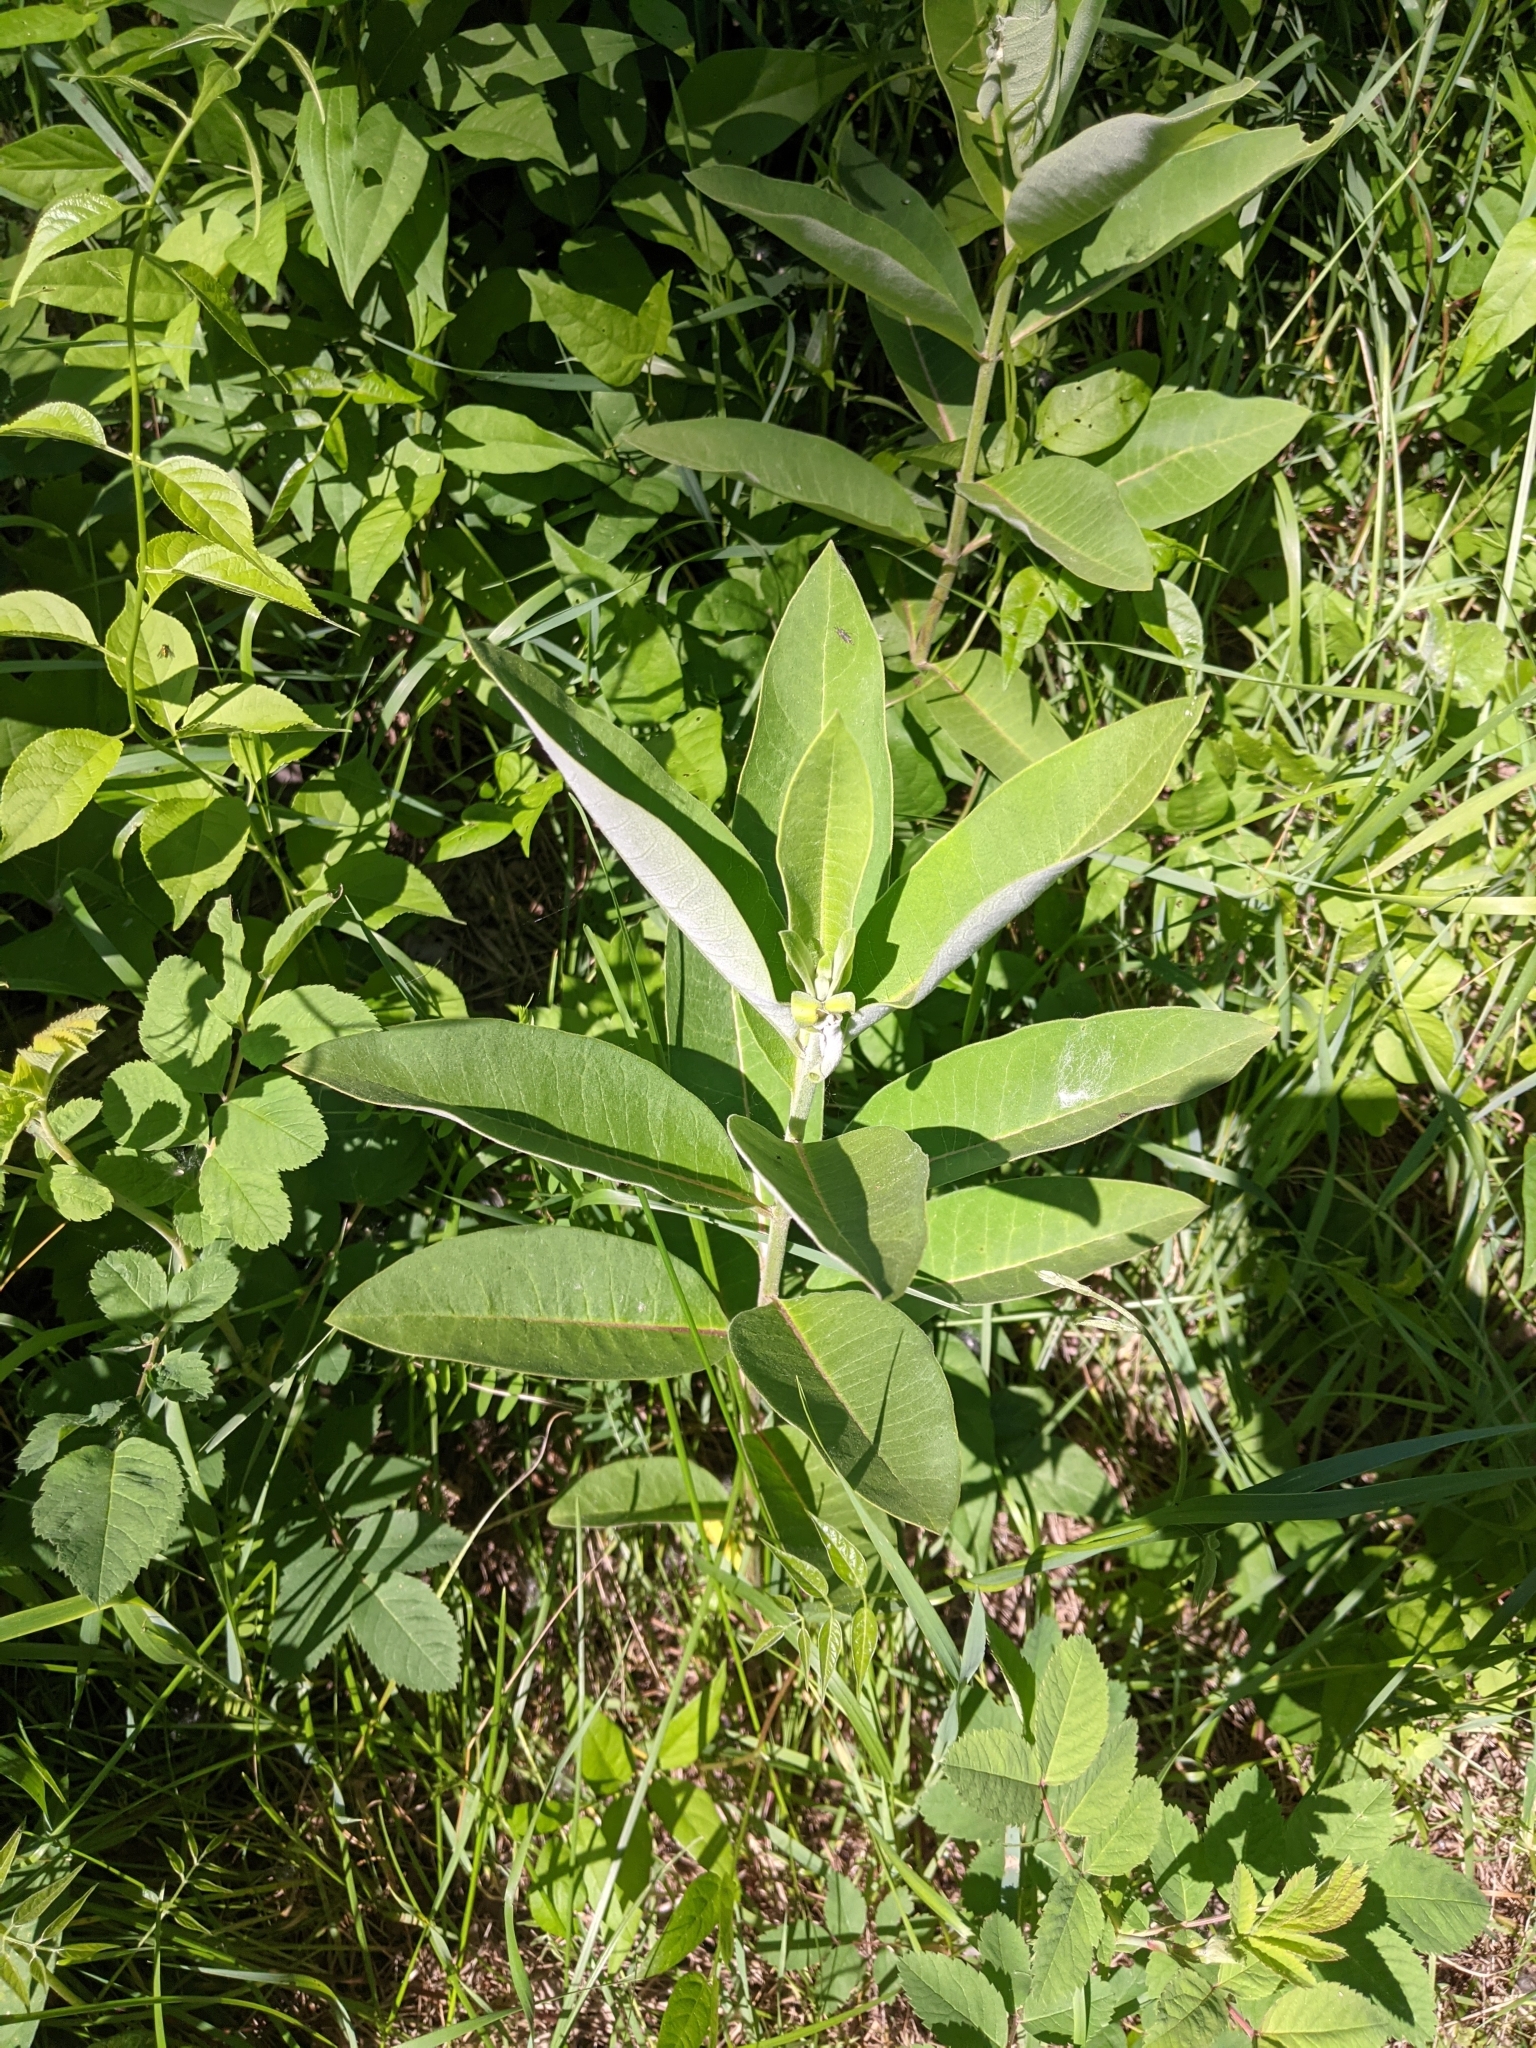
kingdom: Plantae
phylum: Tracheophyta
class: Magnoliopsida
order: Gentianales
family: Apocynaceae
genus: Asclepias
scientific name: Asclepias syriaca
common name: Common milkweed
